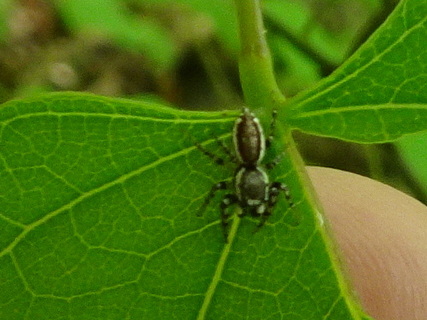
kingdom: Animalia
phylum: Arthropoda
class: Arachnida
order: Araneae
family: Salticidae
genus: Pelegrina
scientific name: Pelegrina proterva
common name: Common white-cheeked jumping spider
